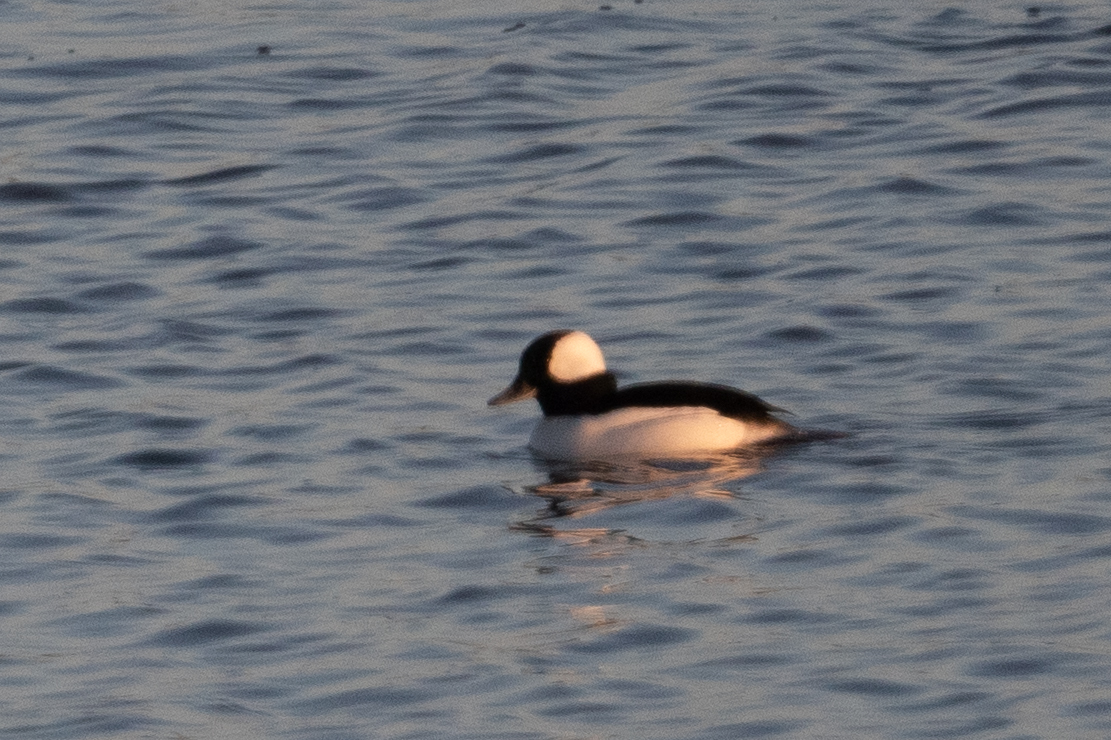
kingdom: Animalia
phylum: Chordata
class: Aves
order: Anseriformes
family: Anatidae
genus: Bucephala
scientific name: Bucephala albeola
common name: Bufflehead
